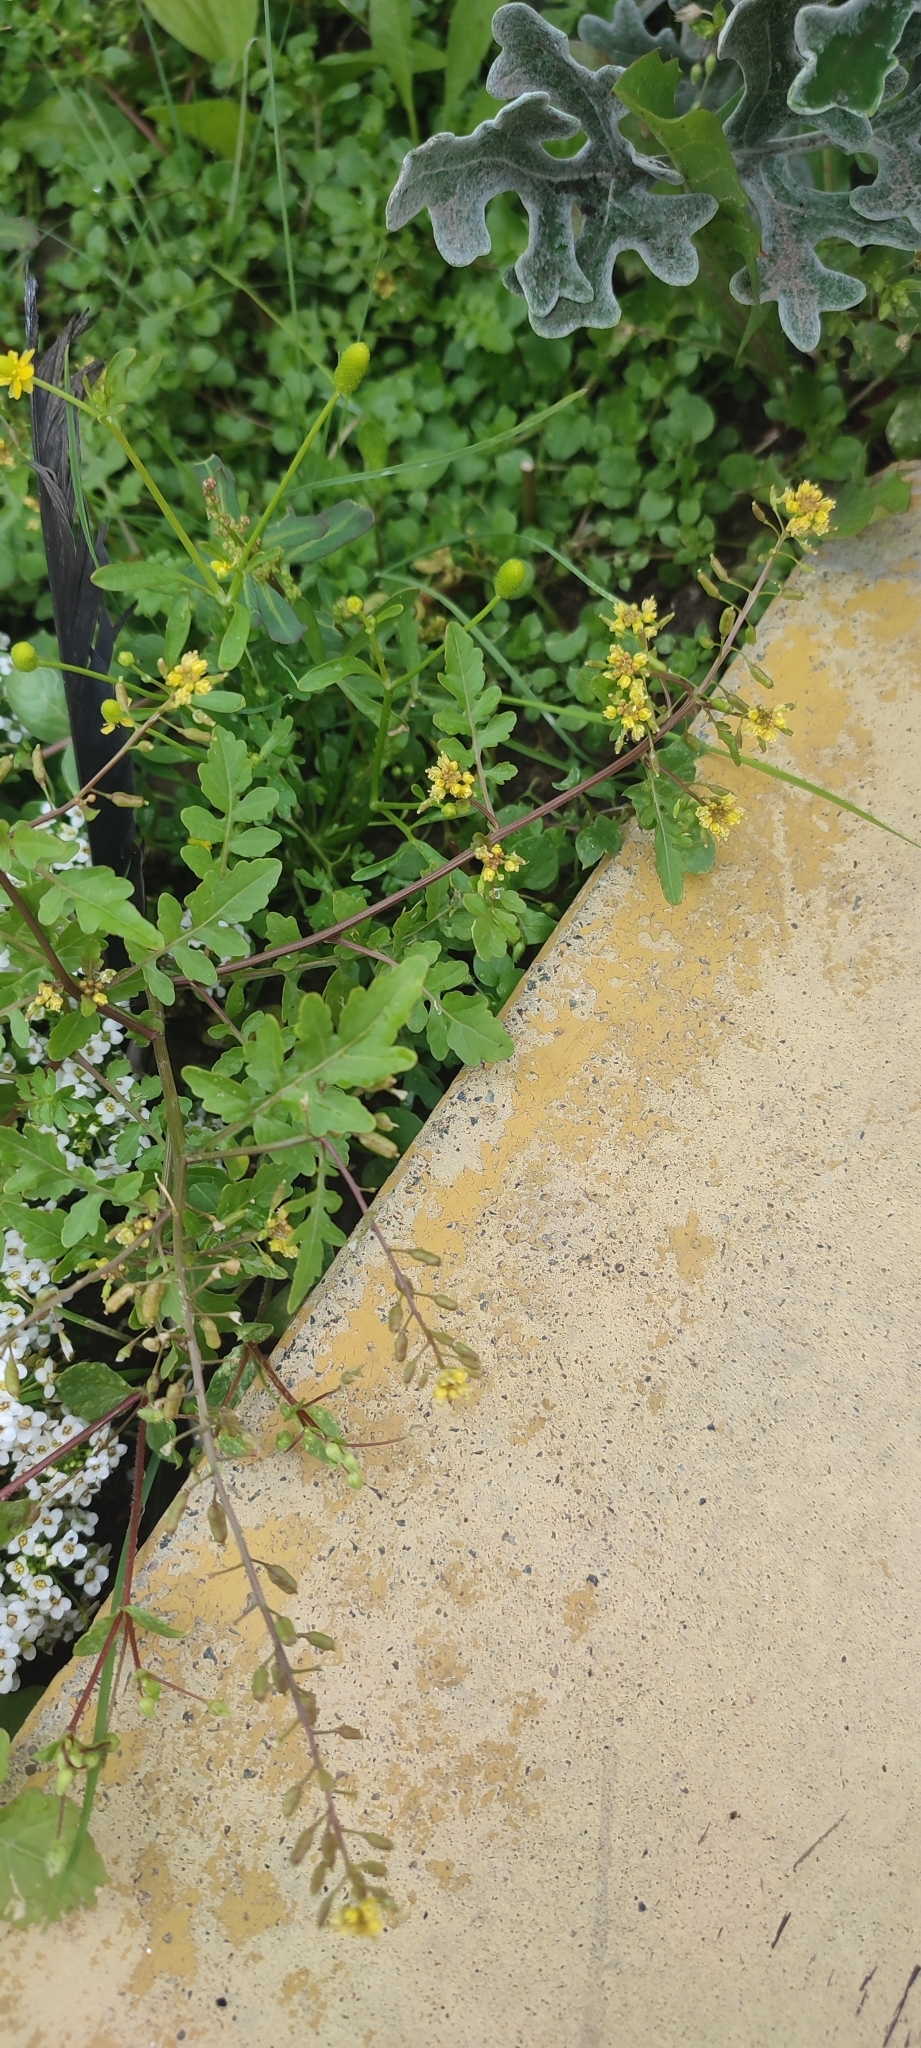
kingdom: Plantae
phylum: Tracheophyta
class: Magnoliopsida
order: Brassicales
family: Brassicaceae
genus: Rorippa
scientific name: Rorippa palustris
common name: Marsh yellow-cress
